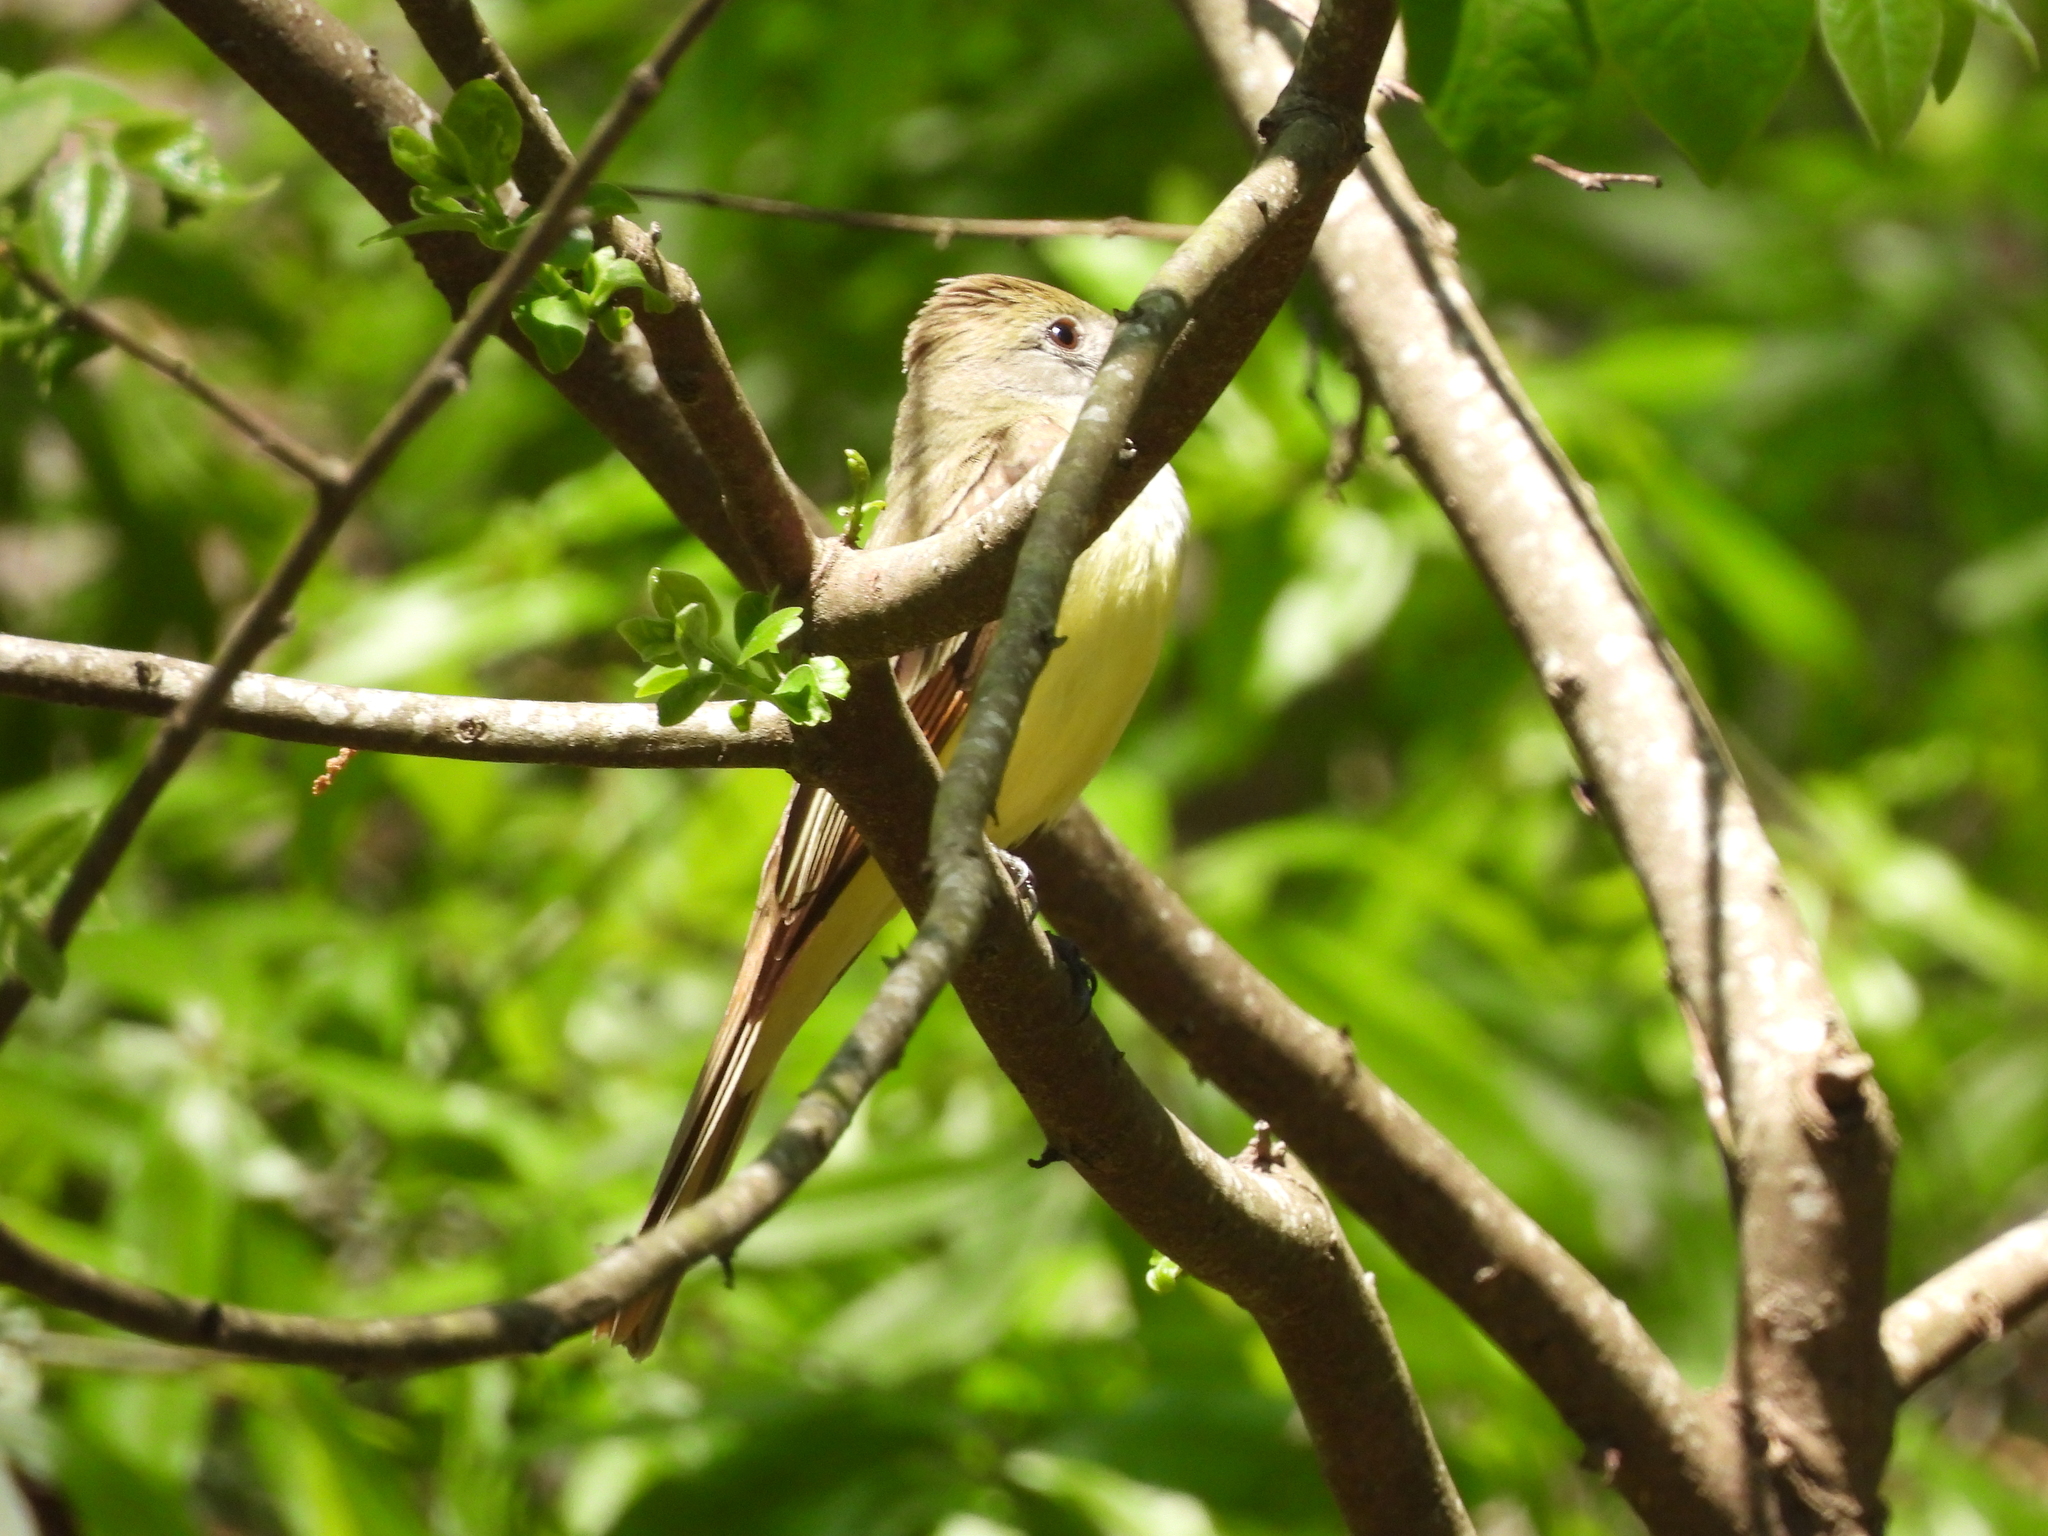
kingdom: Animalia
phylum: Chordata
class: Aves
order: Passeriformes
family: Tyrannidae
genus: Myiarchus
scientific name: Myiarchus crinitus
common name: Great crested flycatcher
